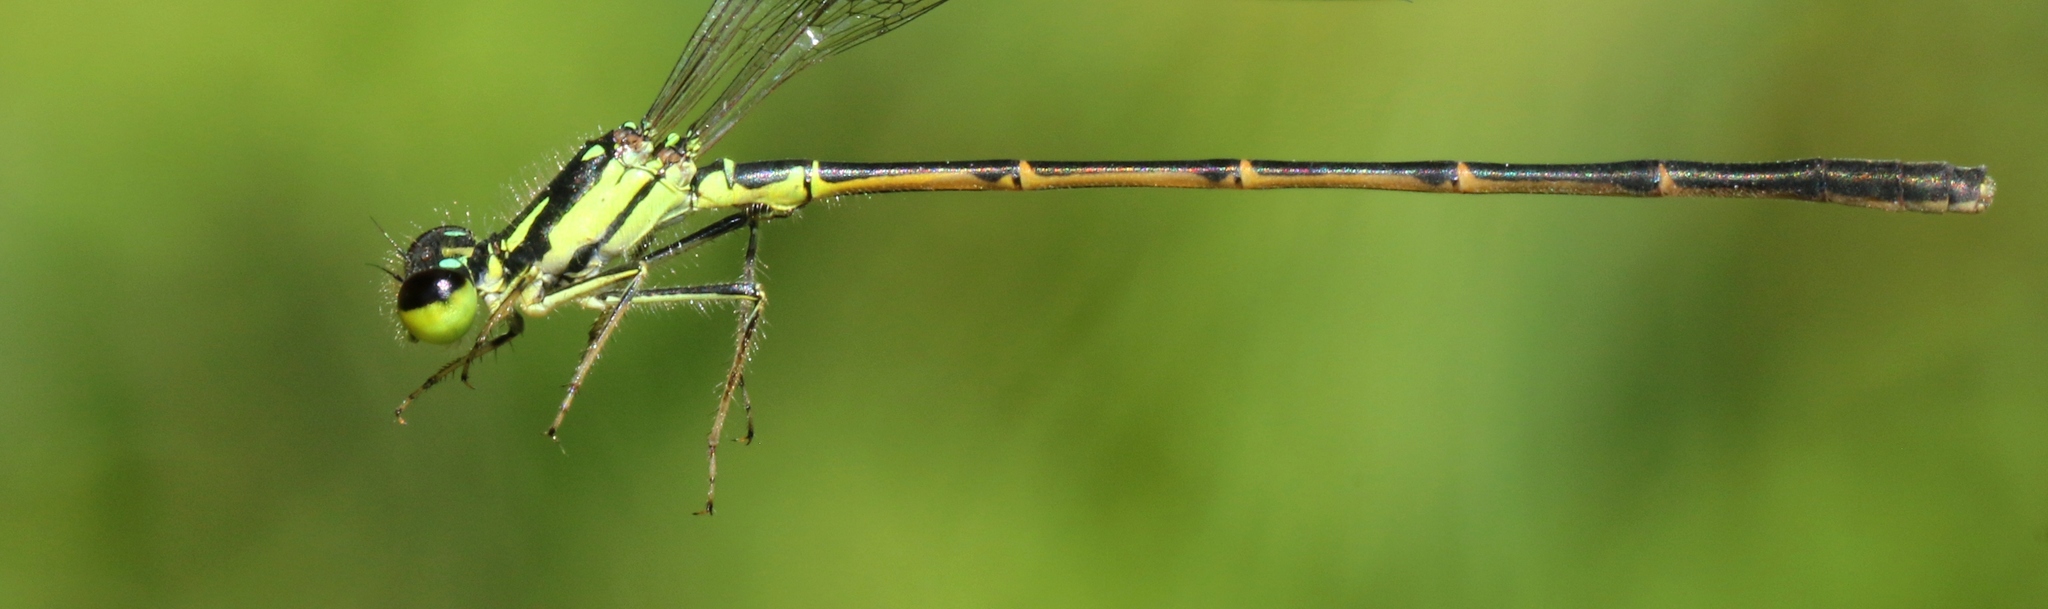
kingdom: Animalia
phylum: Arthropoda
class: Insecta
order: Odonata
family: Coenagrionidae
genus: Ischnura
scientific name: Ischnura posita
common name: Fragile forktail
